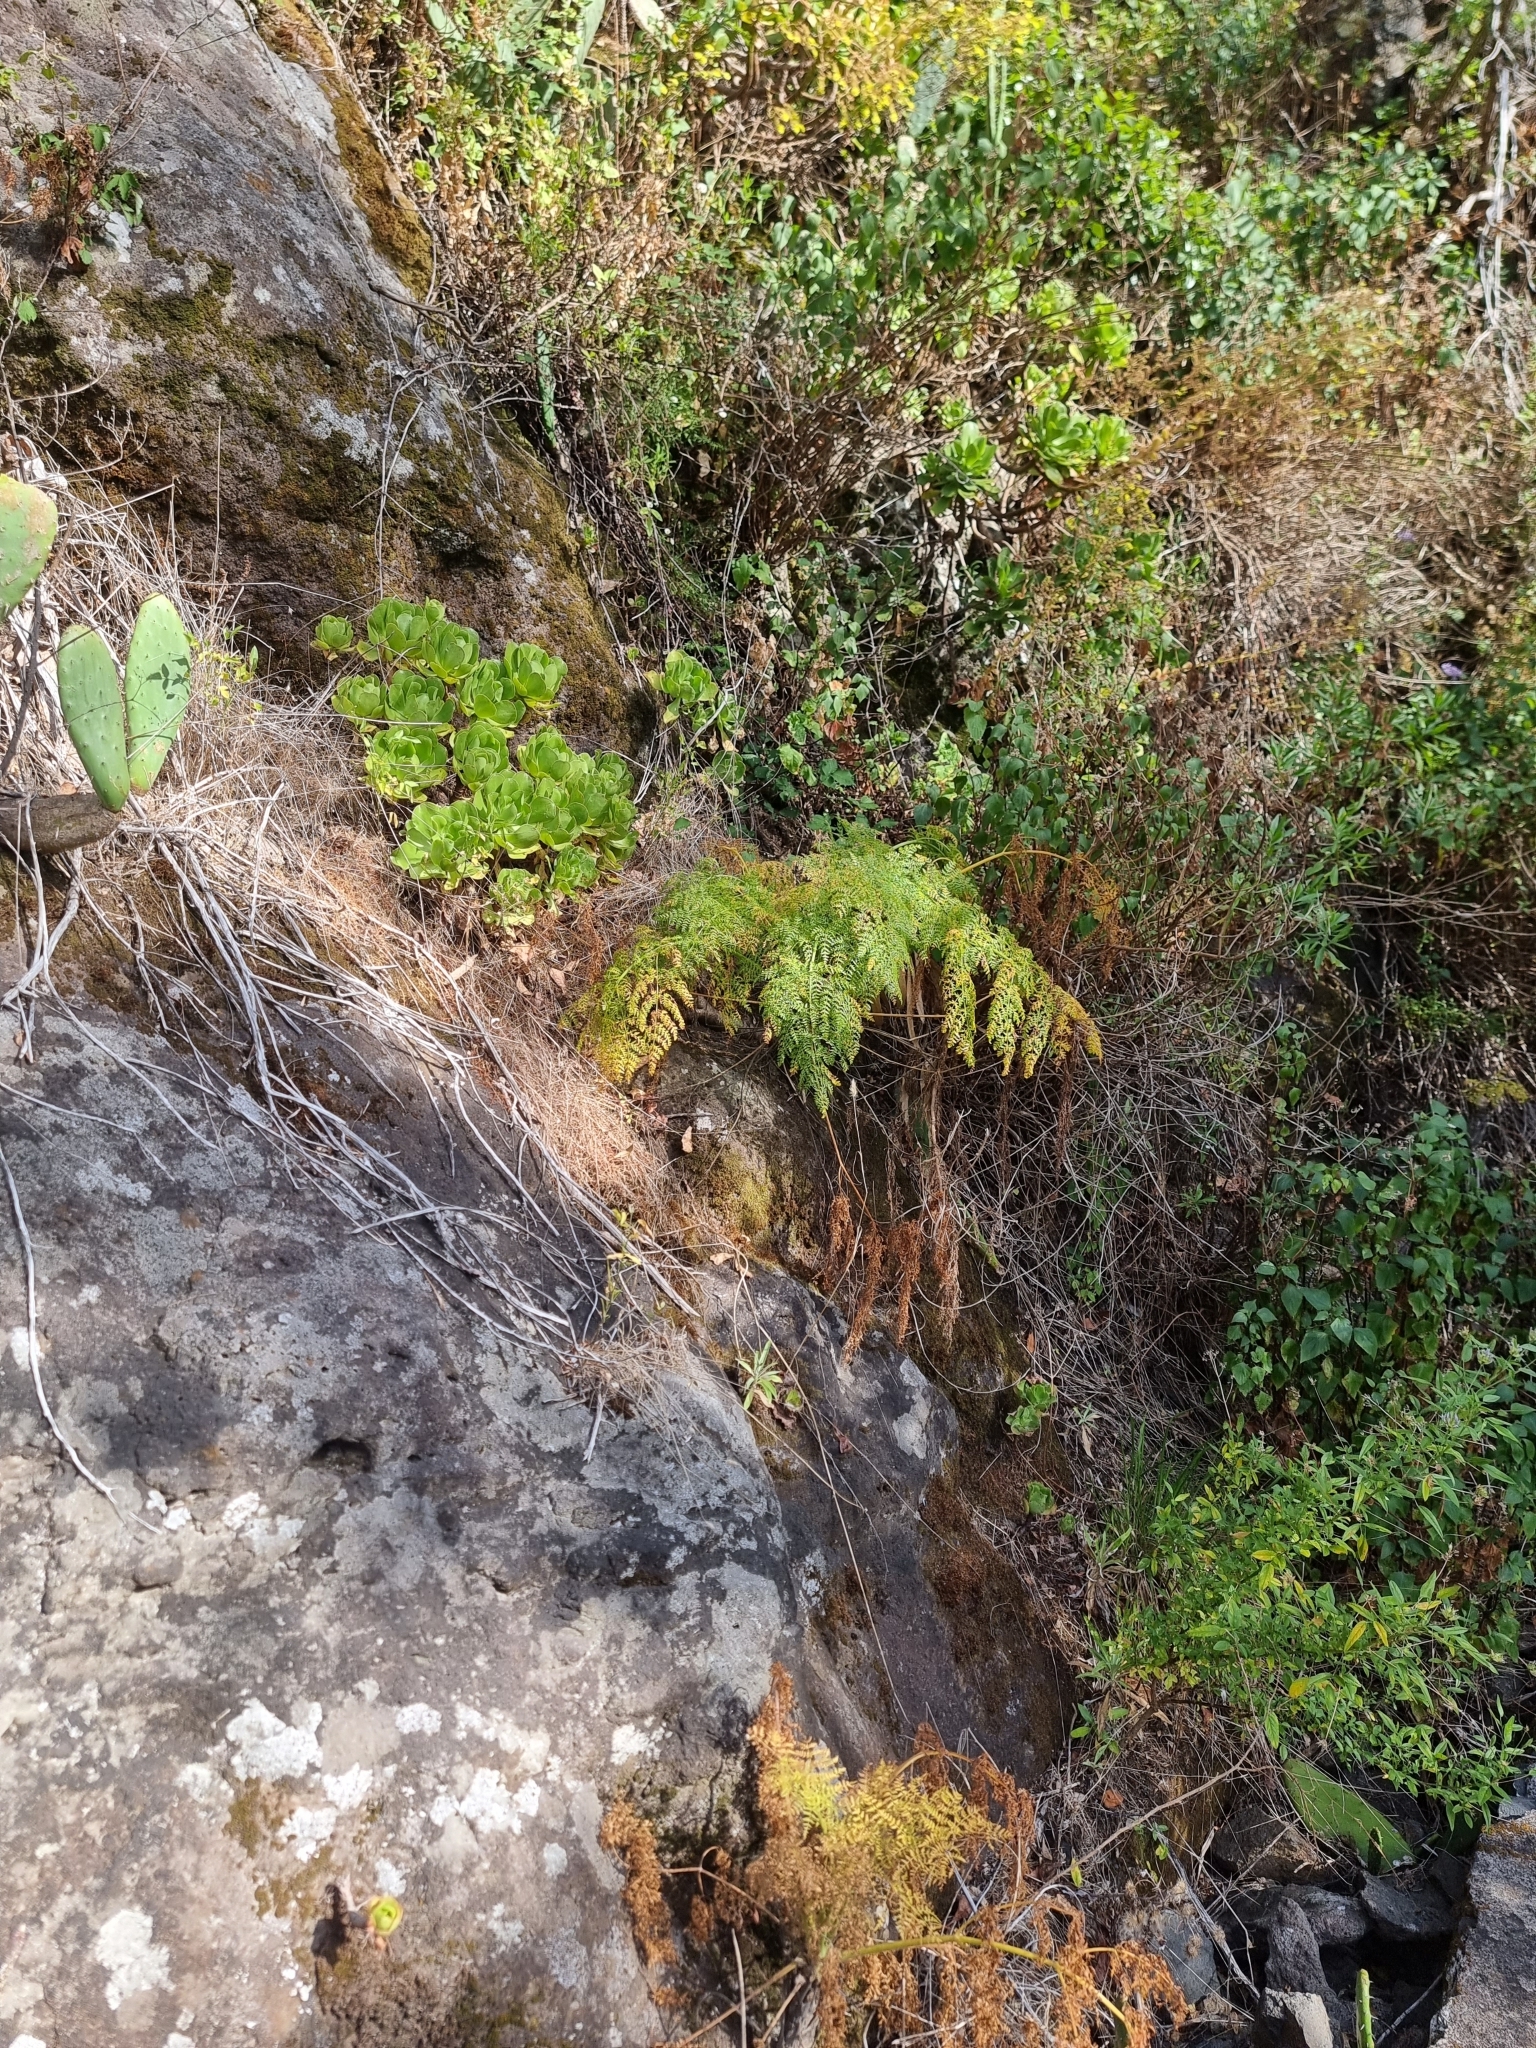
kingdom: Plantae
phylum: Tracheophyta
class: Magnoliopsida
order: Apiales
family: Apiaceae
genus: Daucus
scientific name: Daucus edulis
